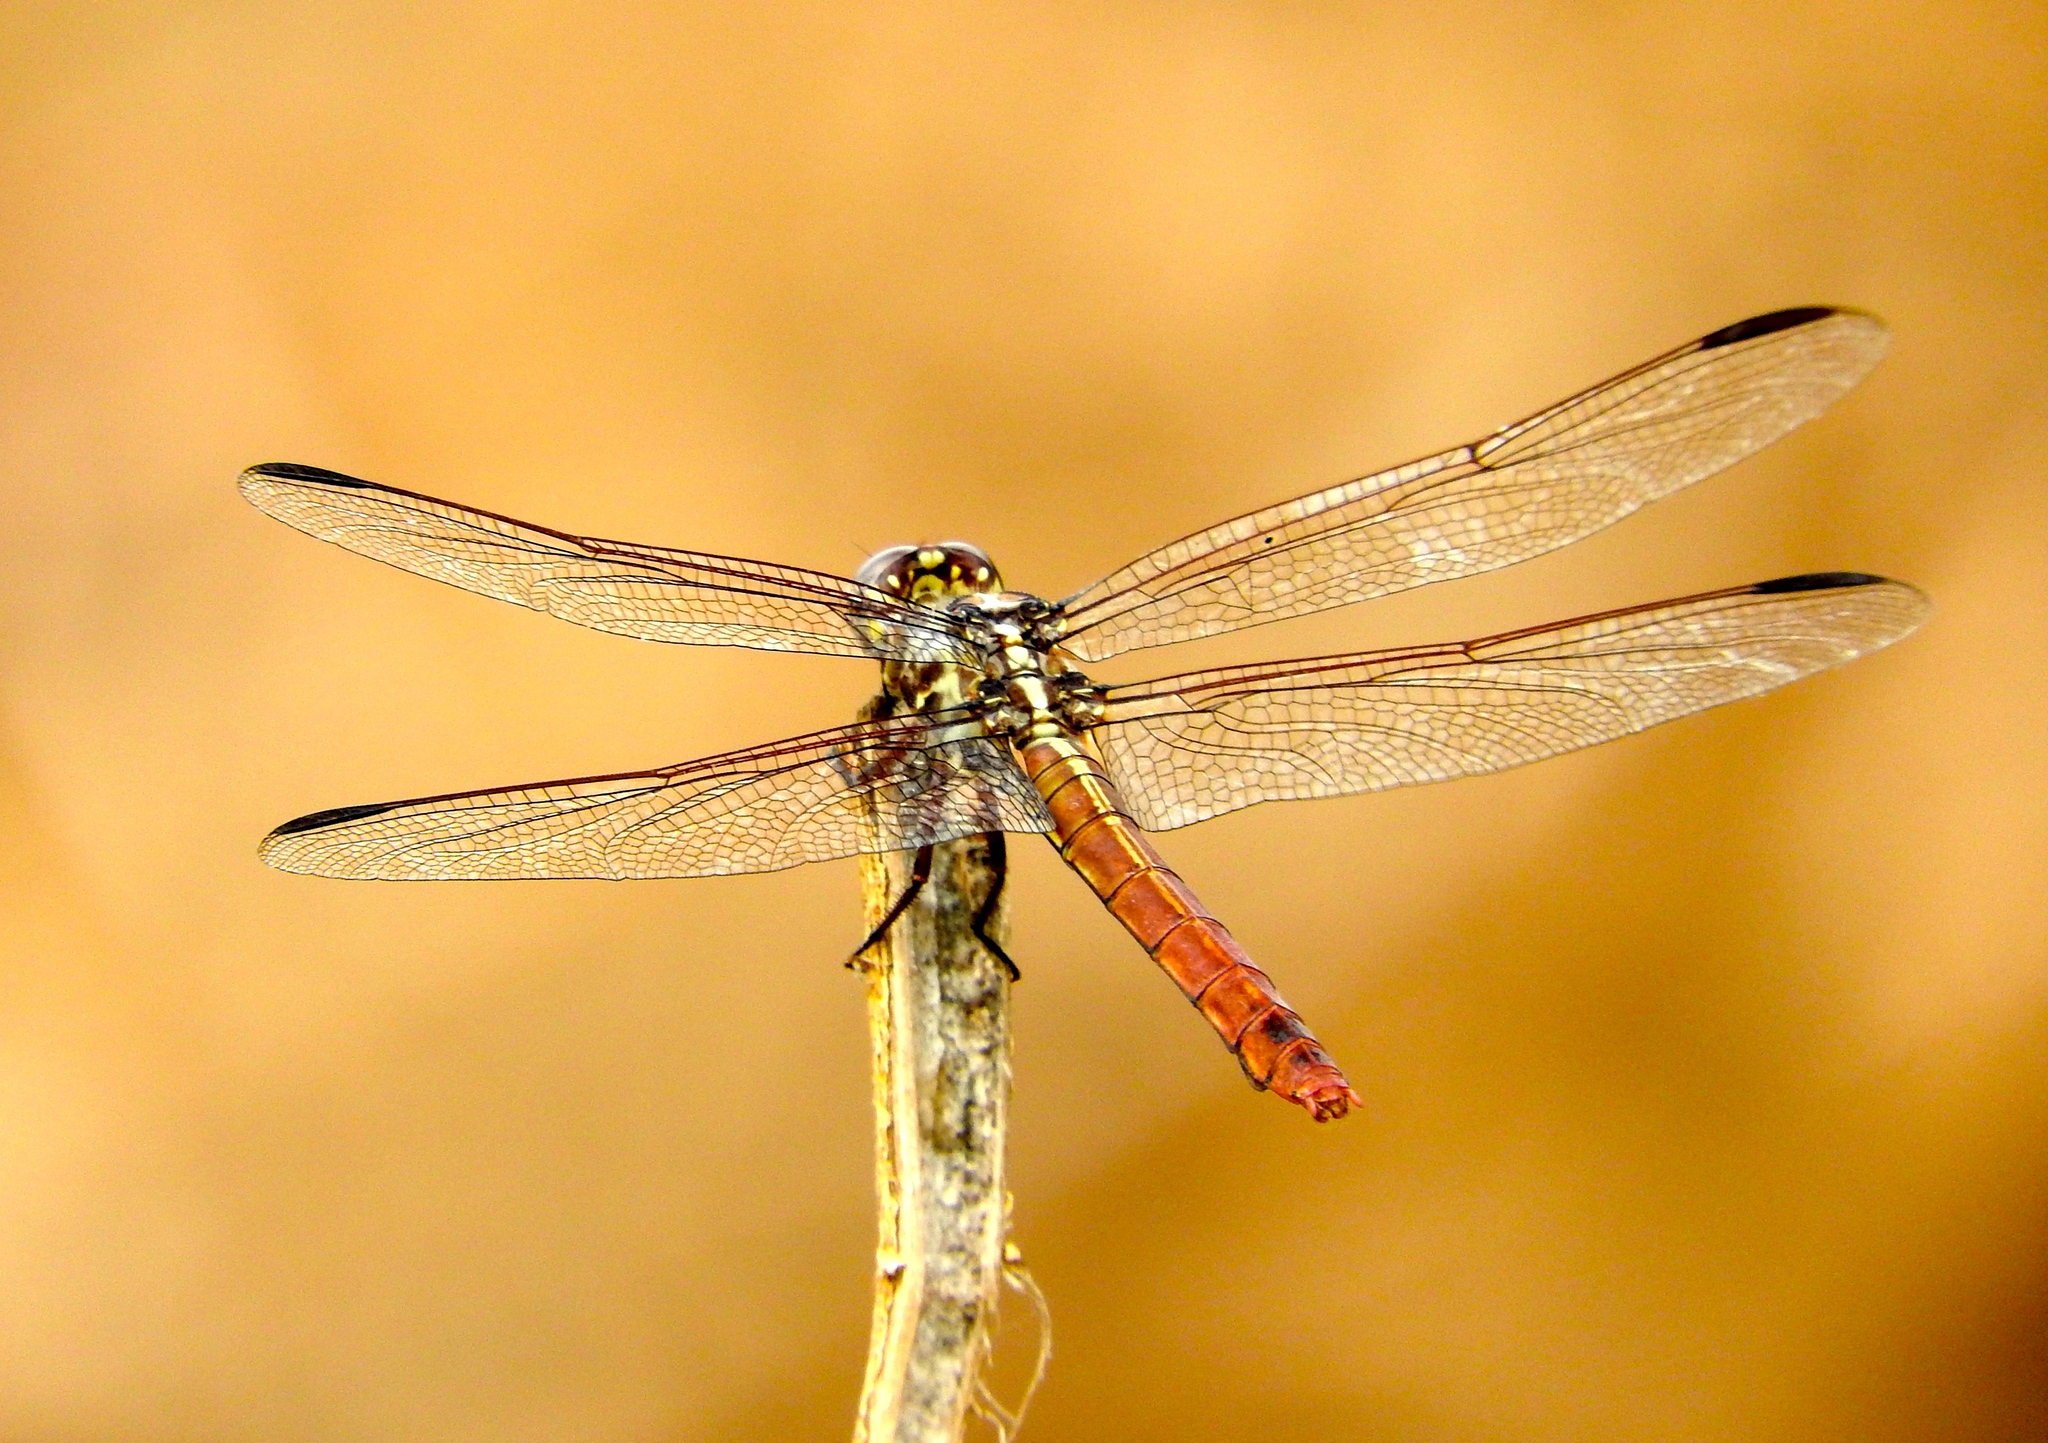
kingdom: Animalia
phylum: Arthropoda
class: Insecta
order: Odonata
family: Libellulidae
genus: Orthemis
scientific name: Orthemis
